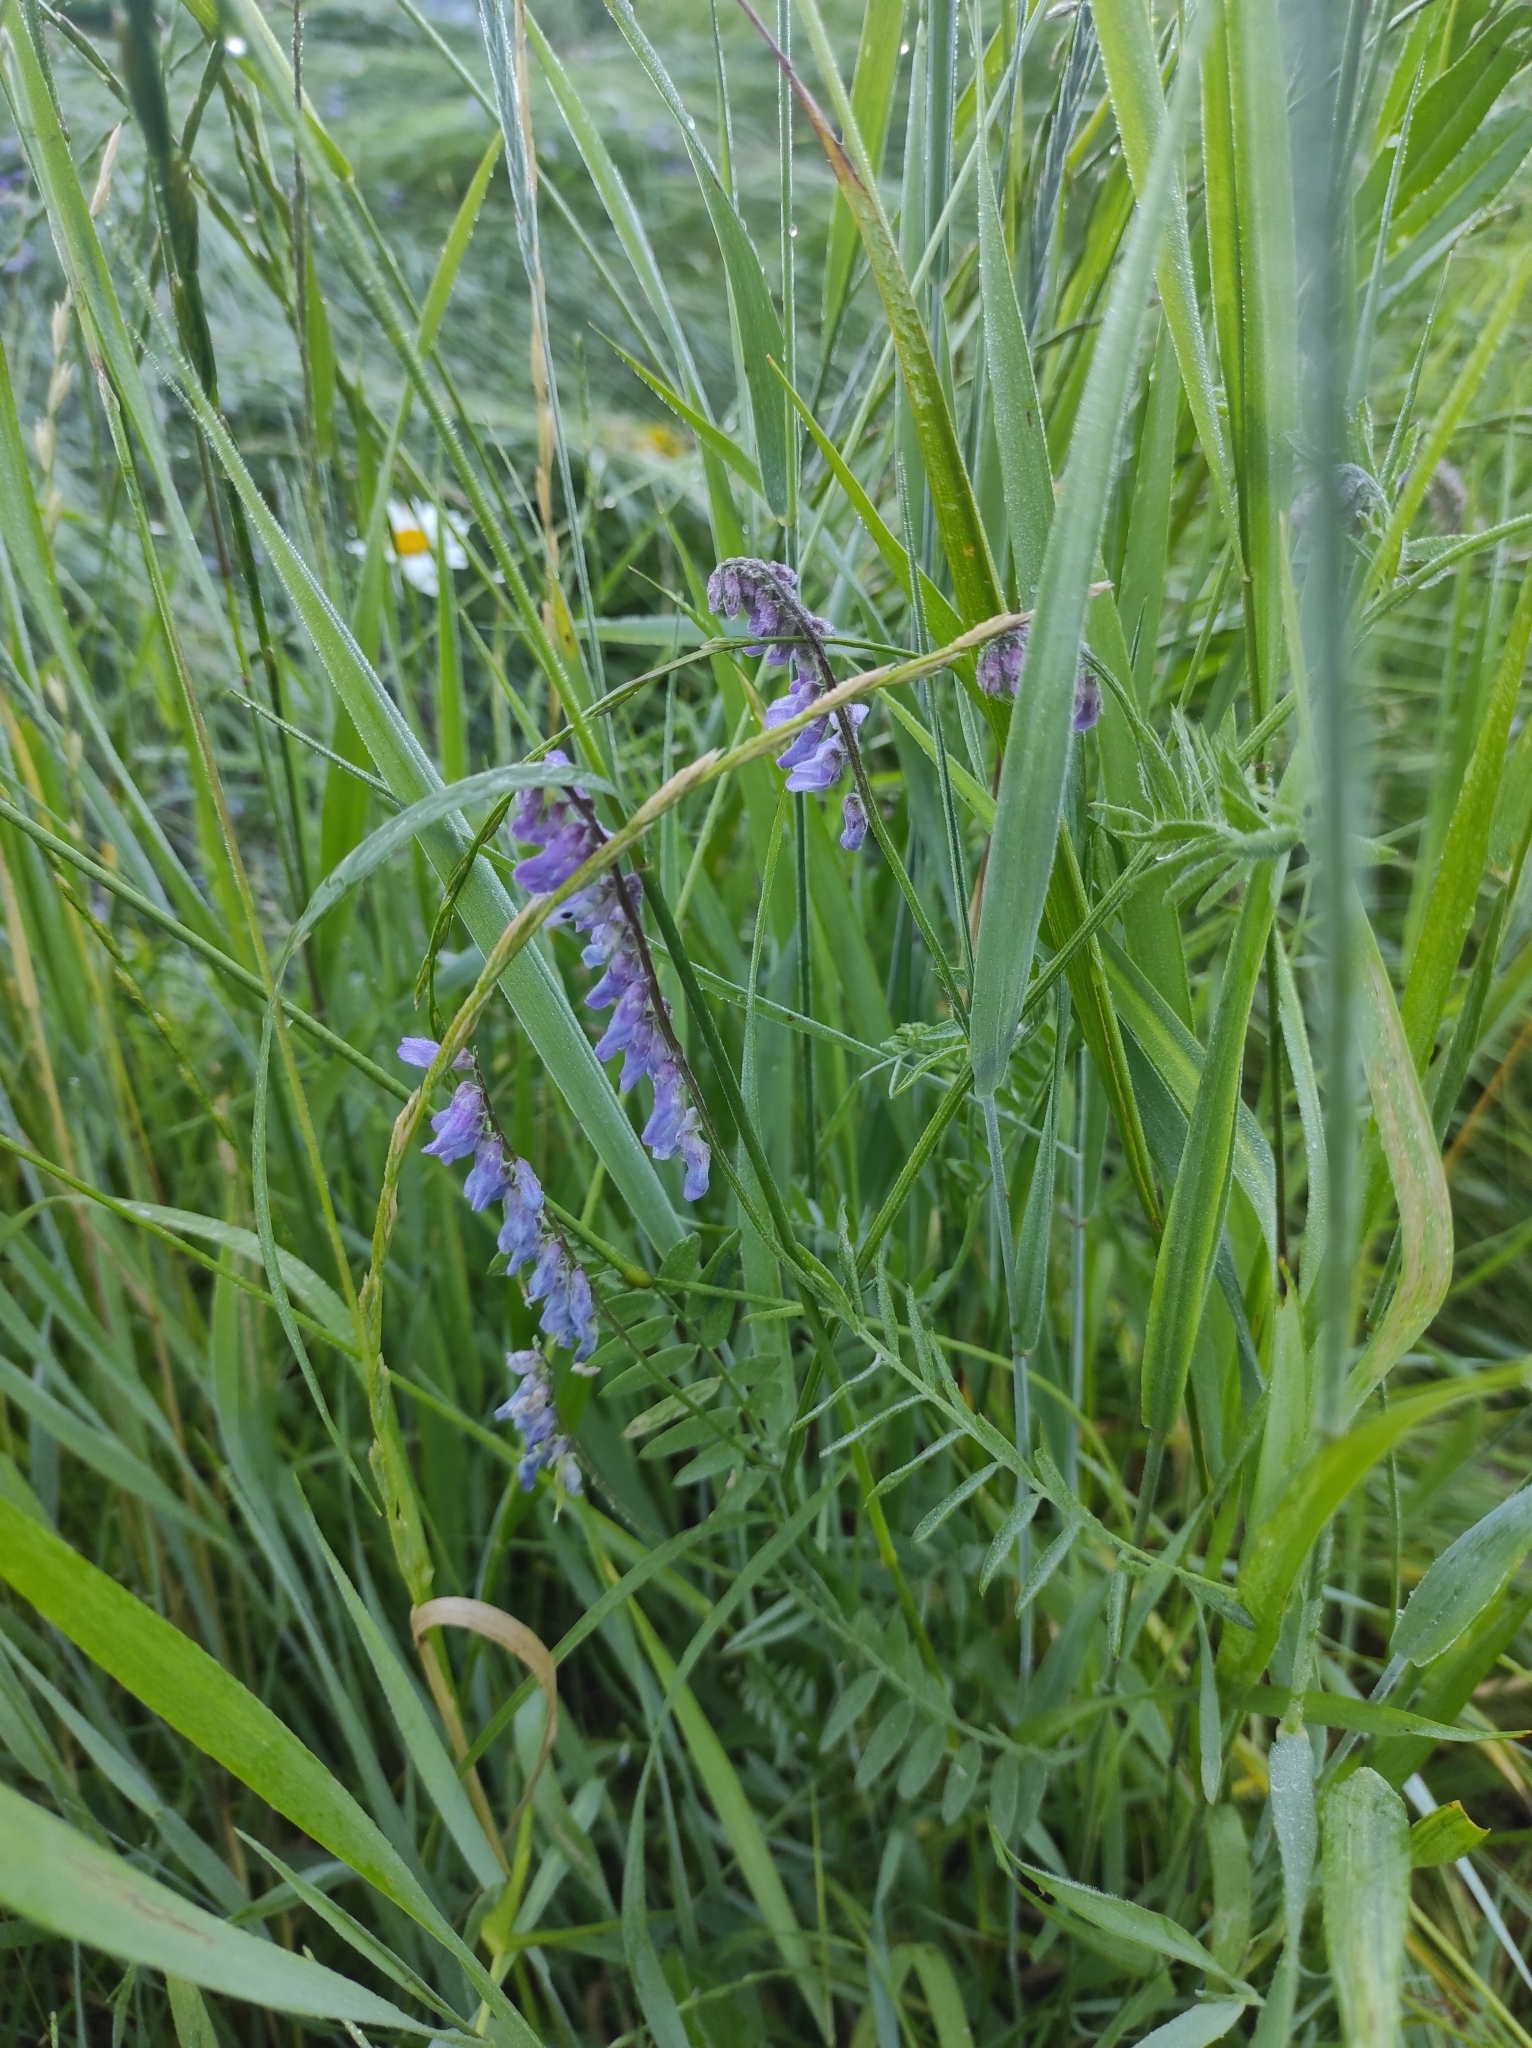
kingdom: Plantae
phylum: Tracheophyta
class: Magnoliopsida
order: Fabales
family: Fabaceae
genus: Vicia
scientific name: Vicia cracca
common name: Bird vetch
